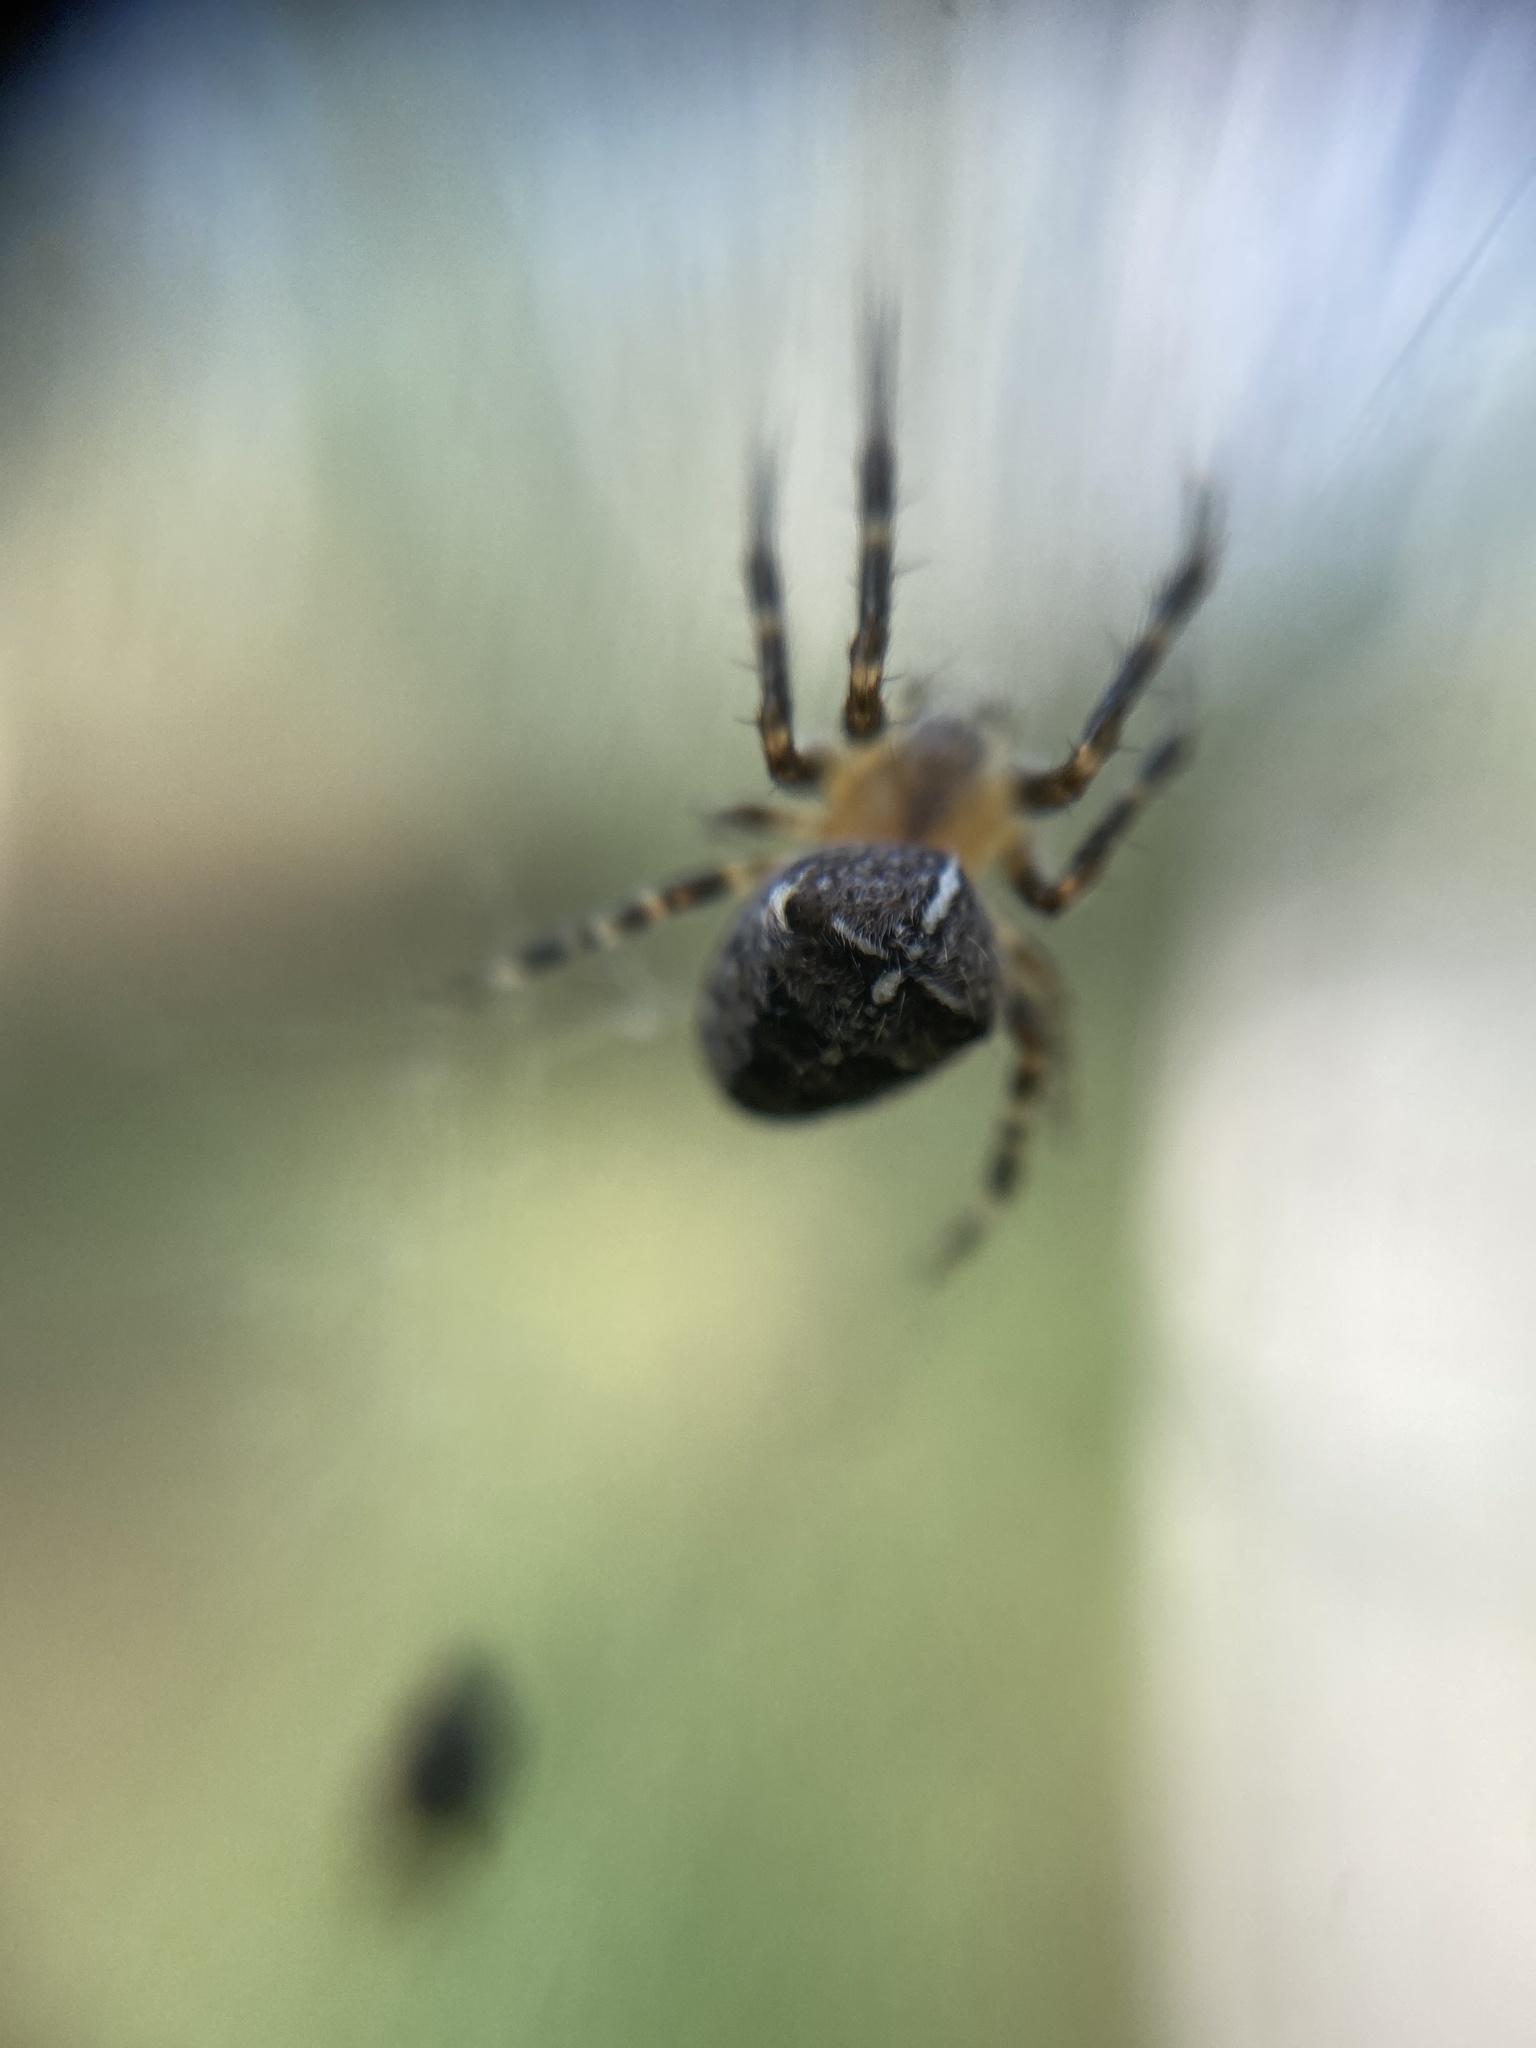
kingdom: Animalia
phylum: Arthropoda
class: Arachnida
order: Araneae
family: Araneidae
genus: Araneus
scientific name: Araneus diadematus
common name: Cross orbweaver
